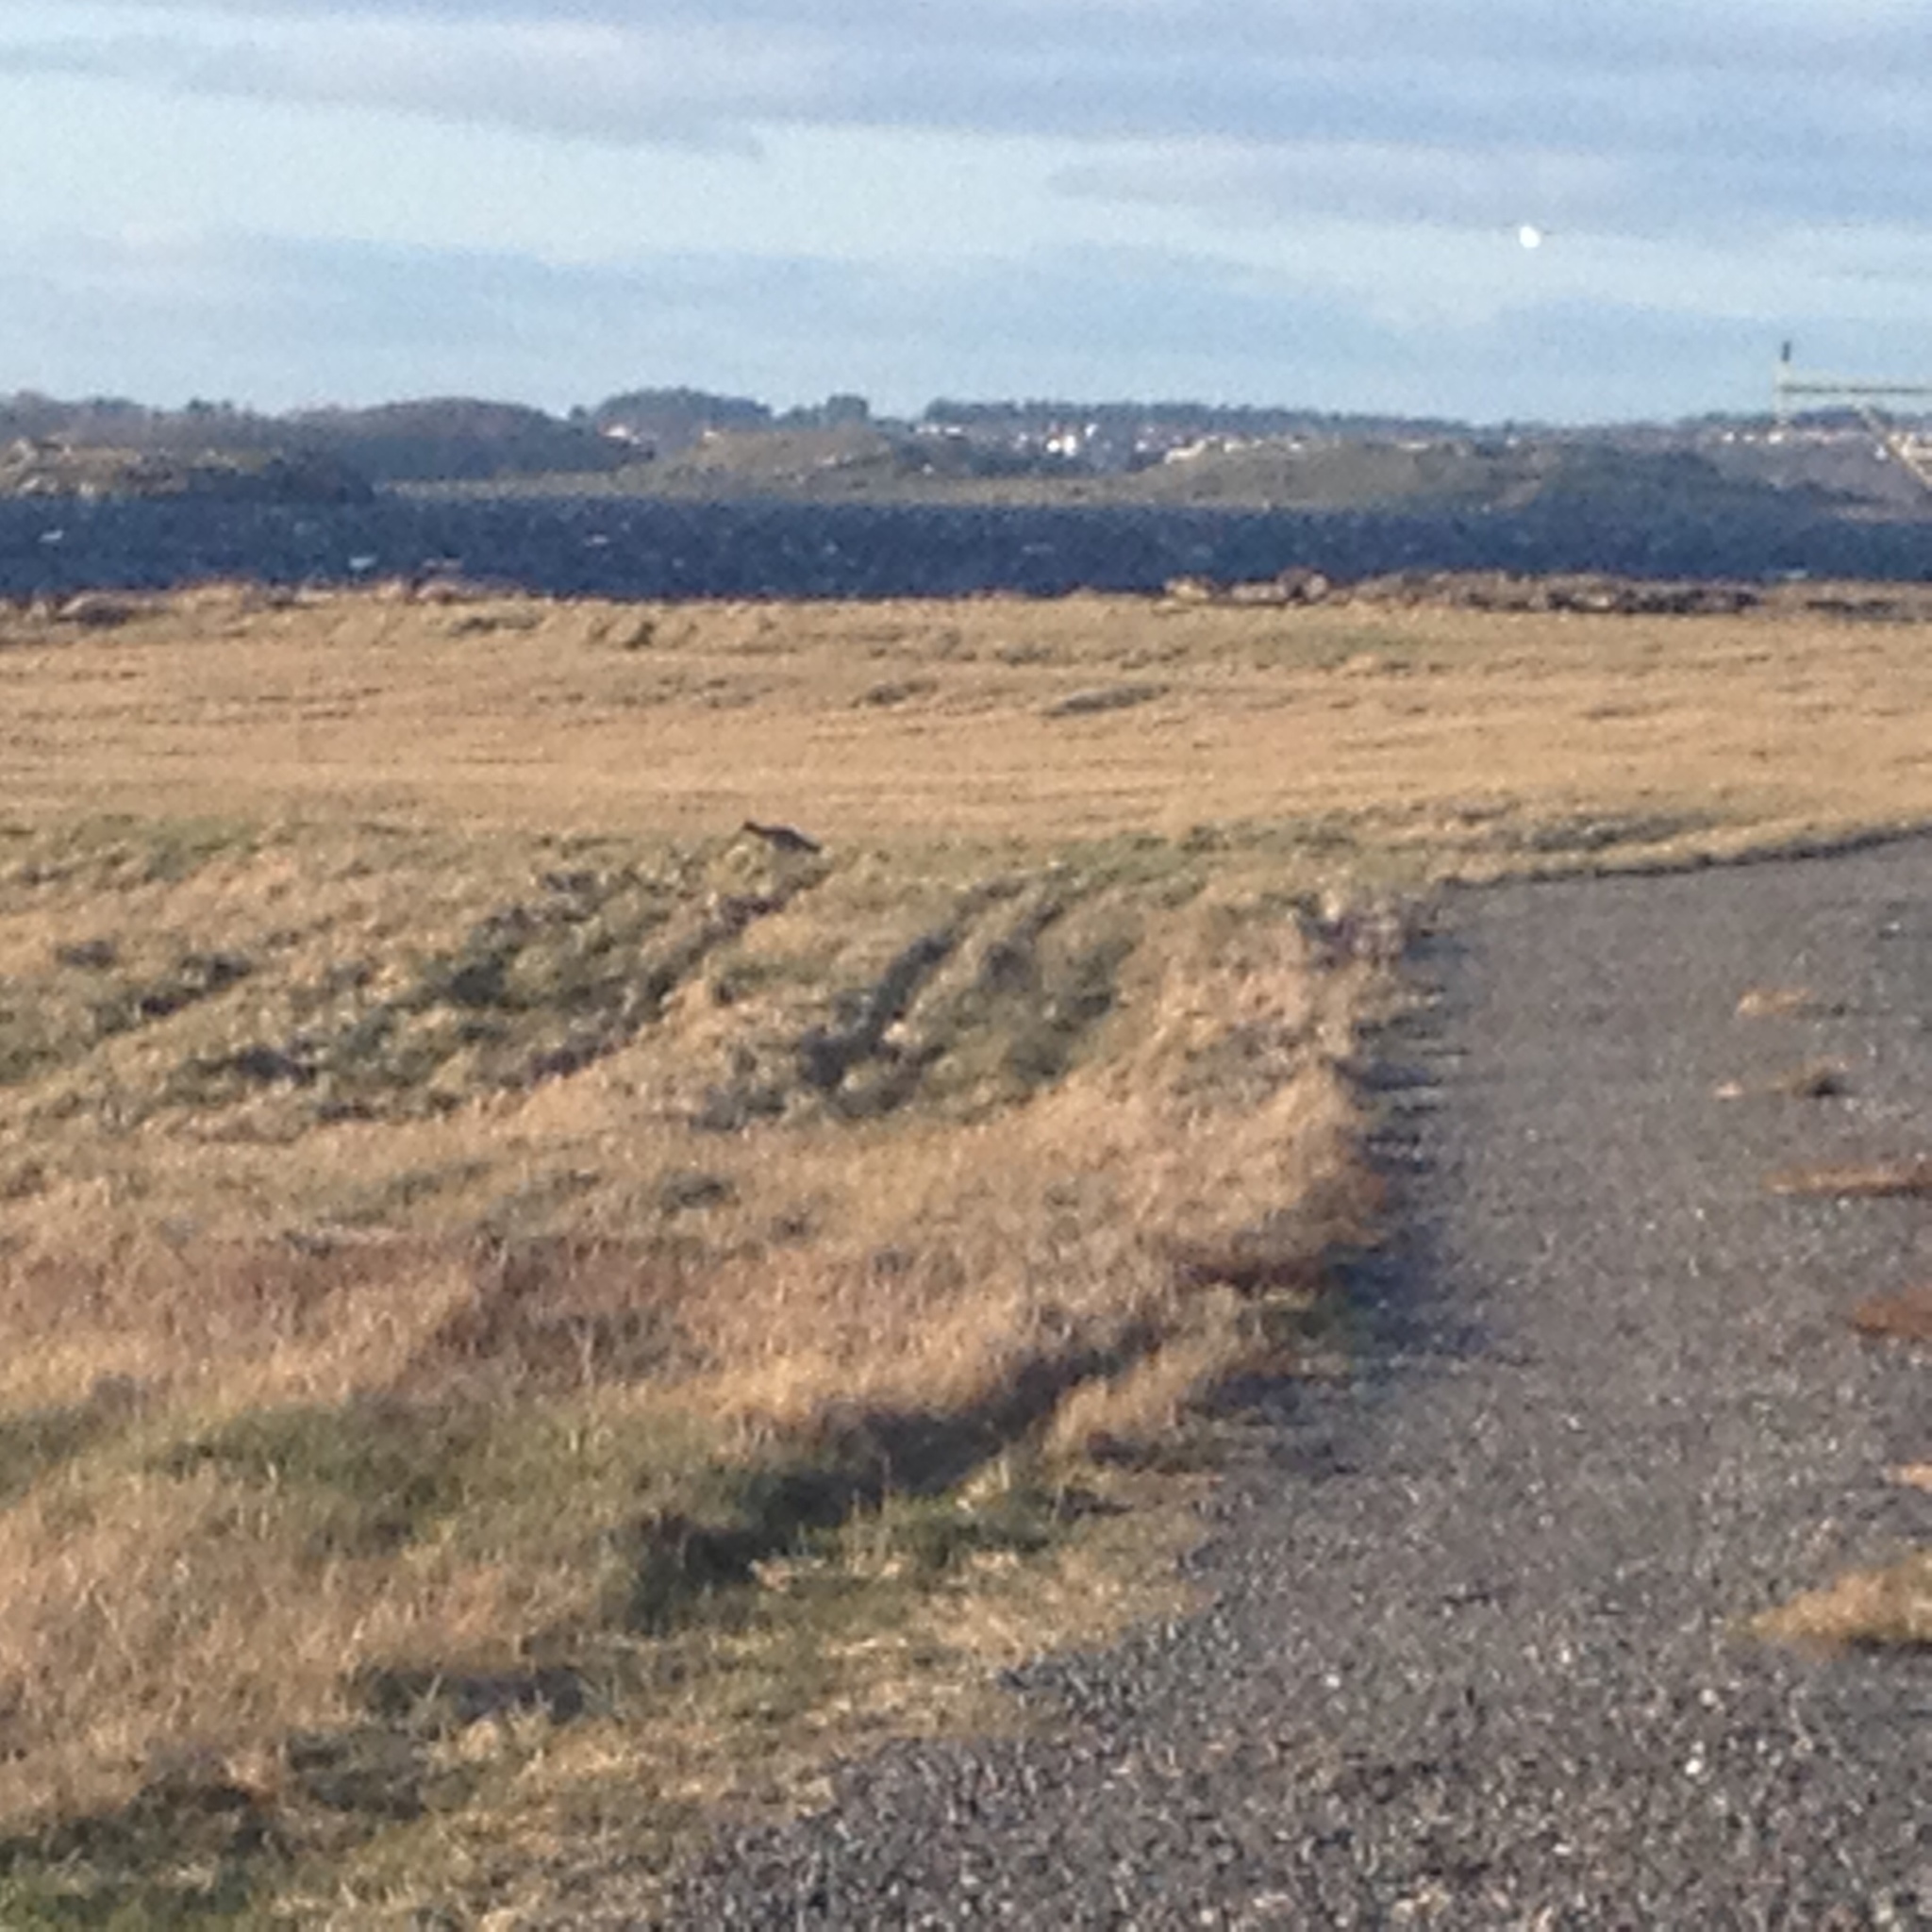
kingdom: Animalia
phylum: Chordata
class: Aves
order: Charadriiformes
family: Scolopacidae
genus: Numenius
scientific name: Numenius arquata
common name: Eurasian curlew
